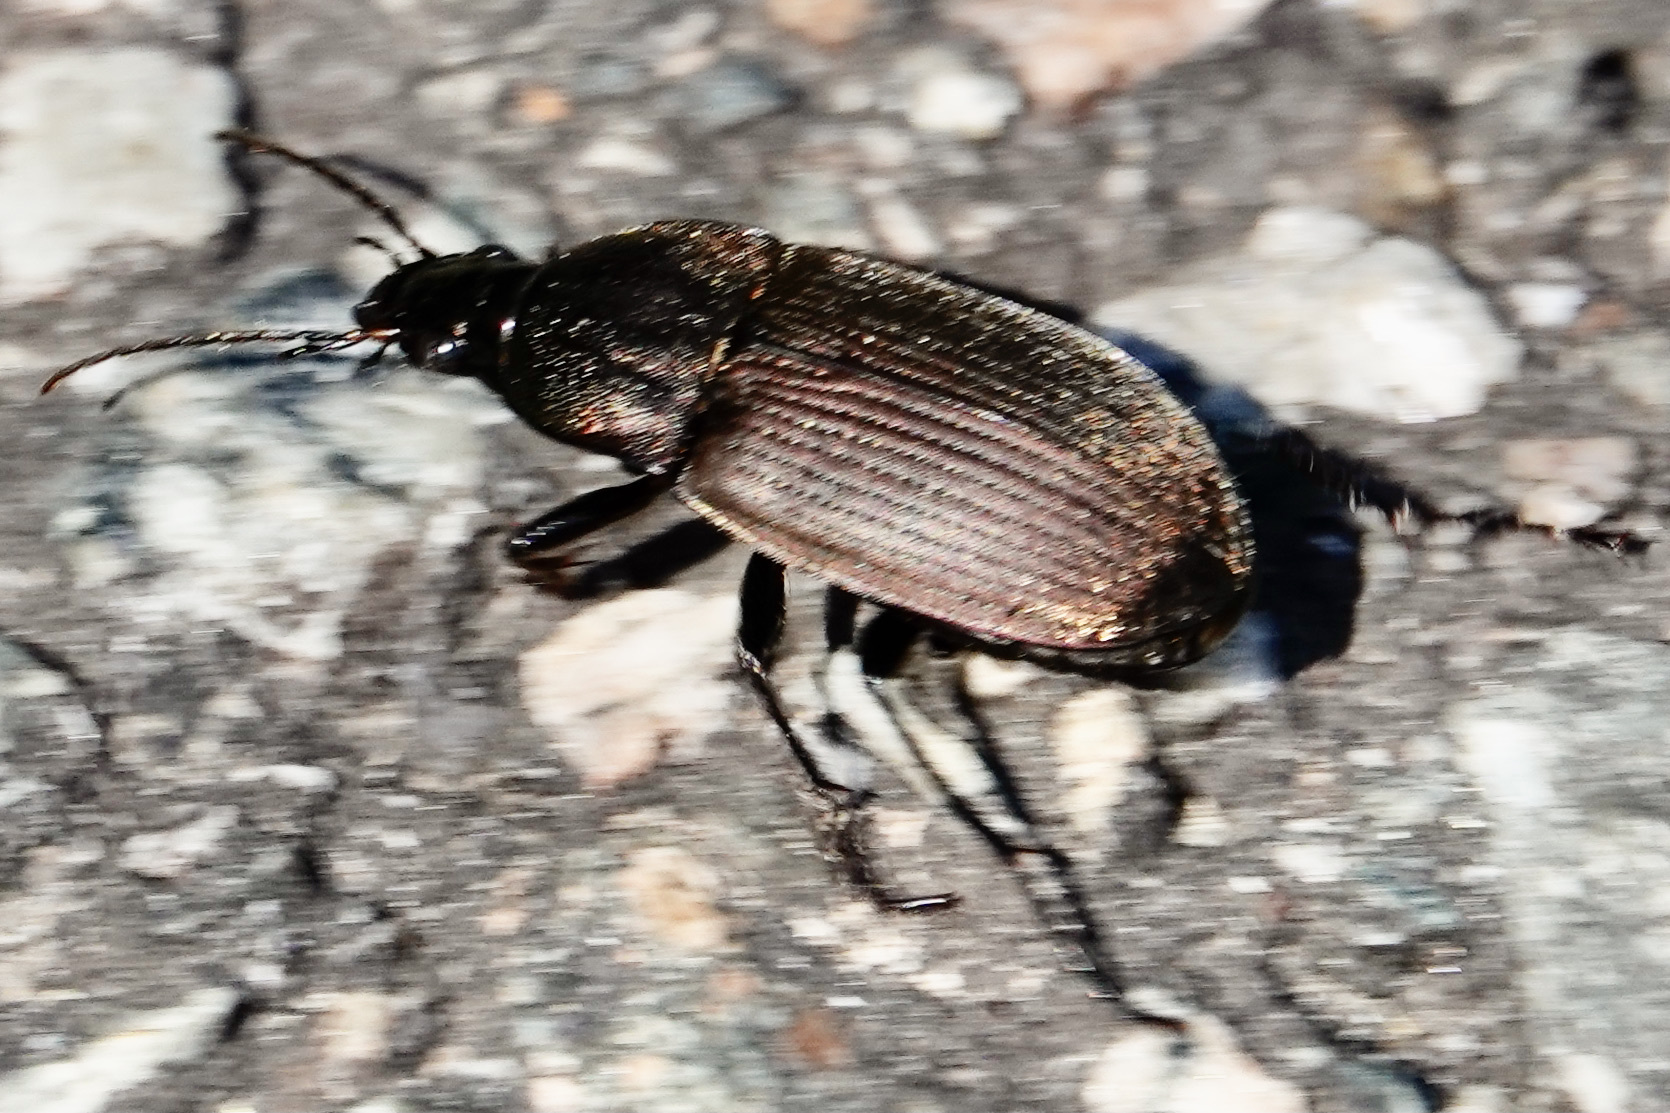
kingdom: Animalia
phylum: Arthropoda
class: Insecta
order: Coleoptera
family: Carabidae
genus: Chlaenius
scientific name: Chlaenius tomentosus
